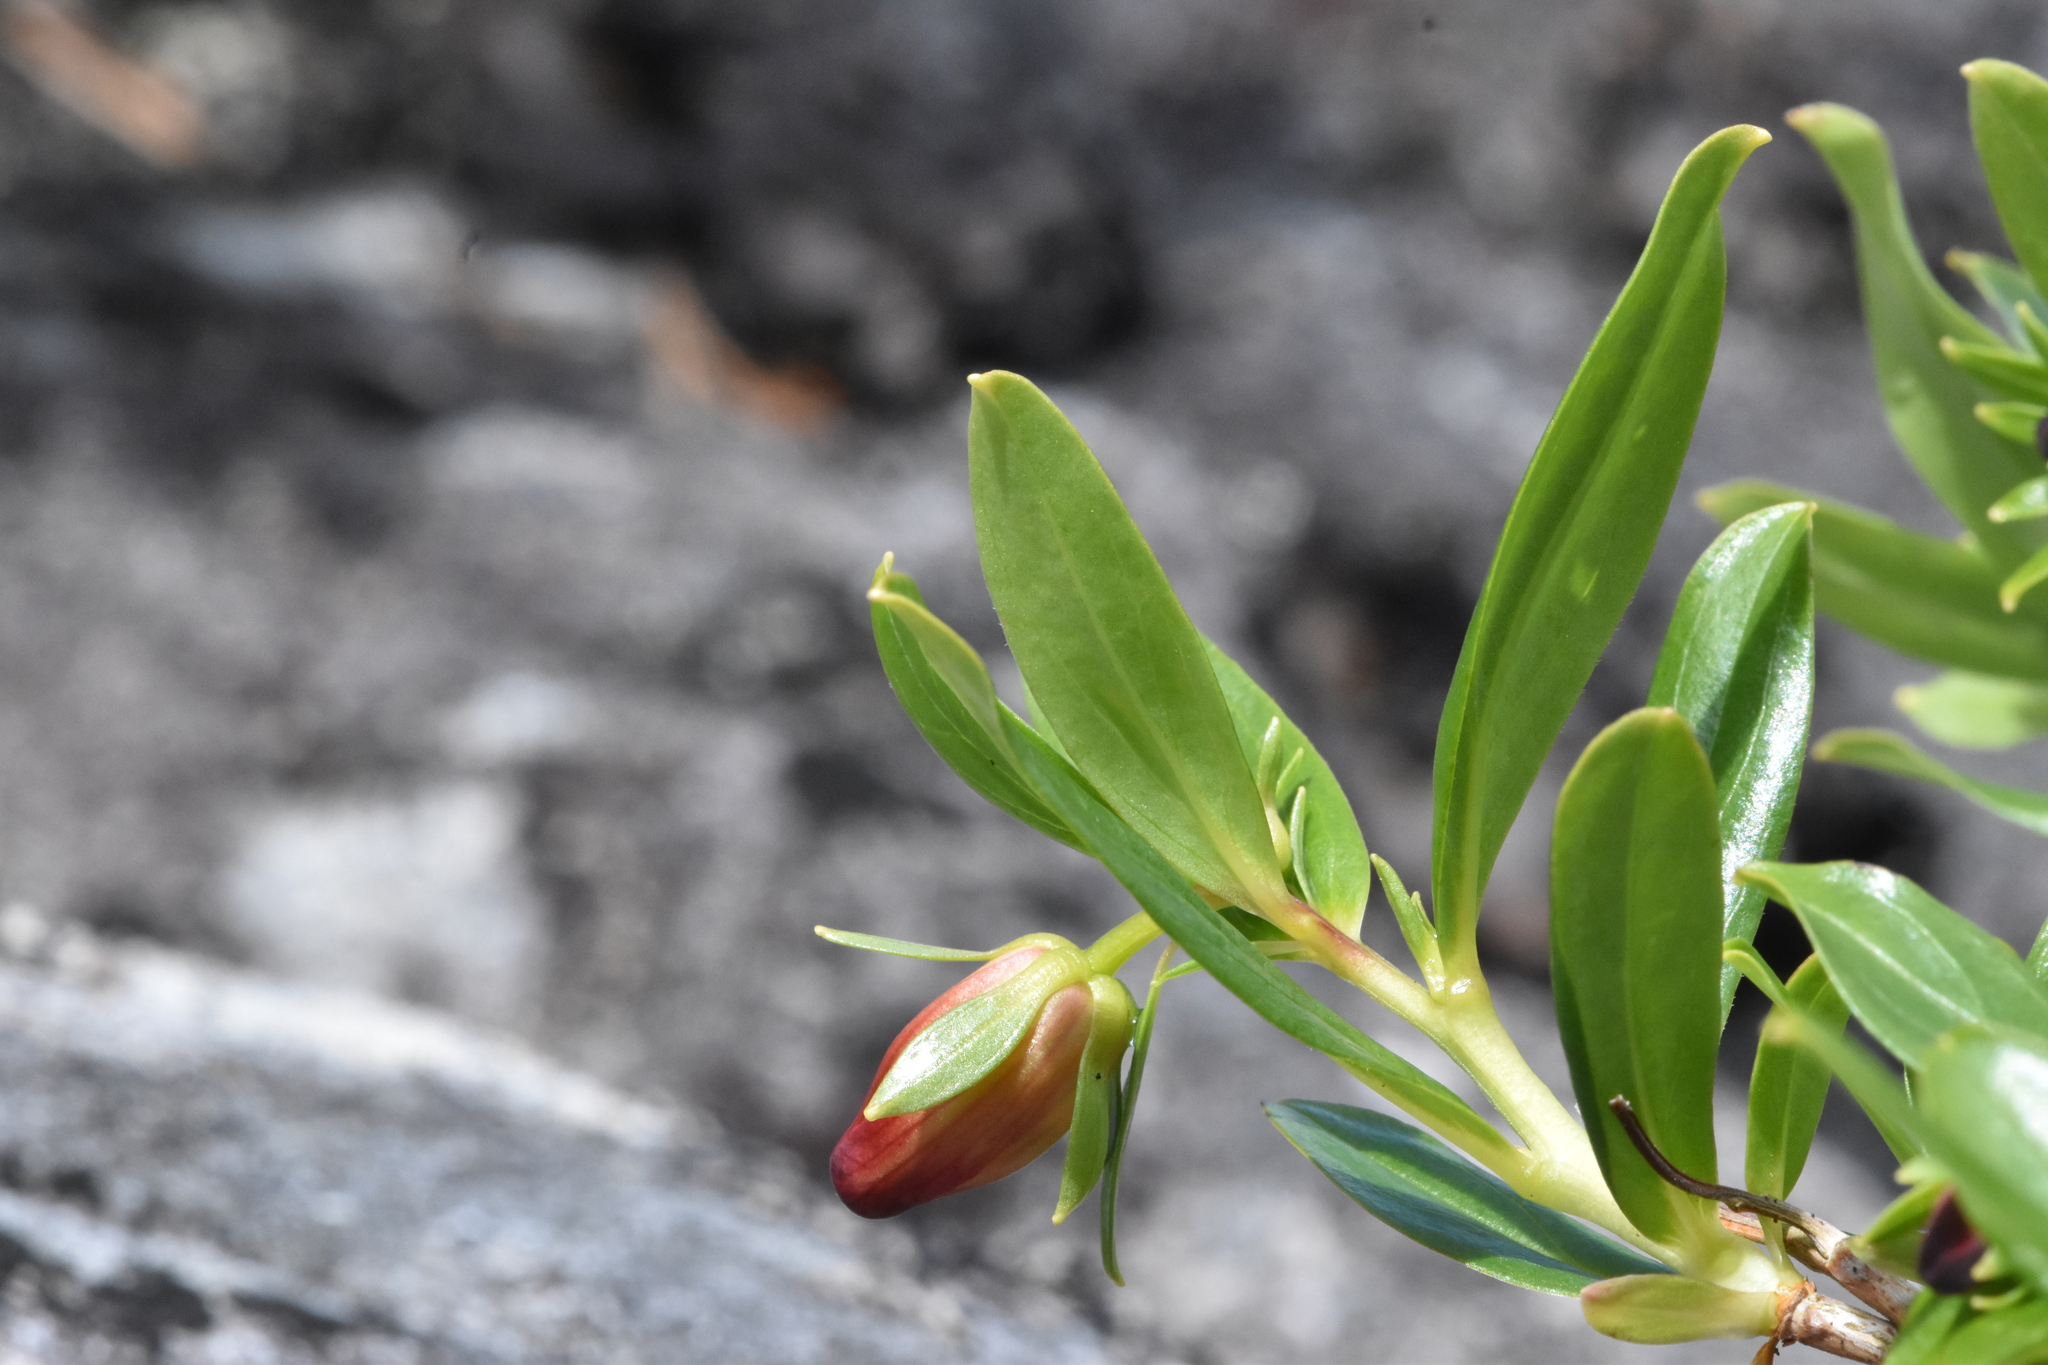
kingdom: Plantae
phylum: Tracheophyta
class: Magnoliopsida
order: Ericales
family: Ericaceae
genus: Elliottia
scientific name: Elliottia pyroliflora
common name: Copperbush
